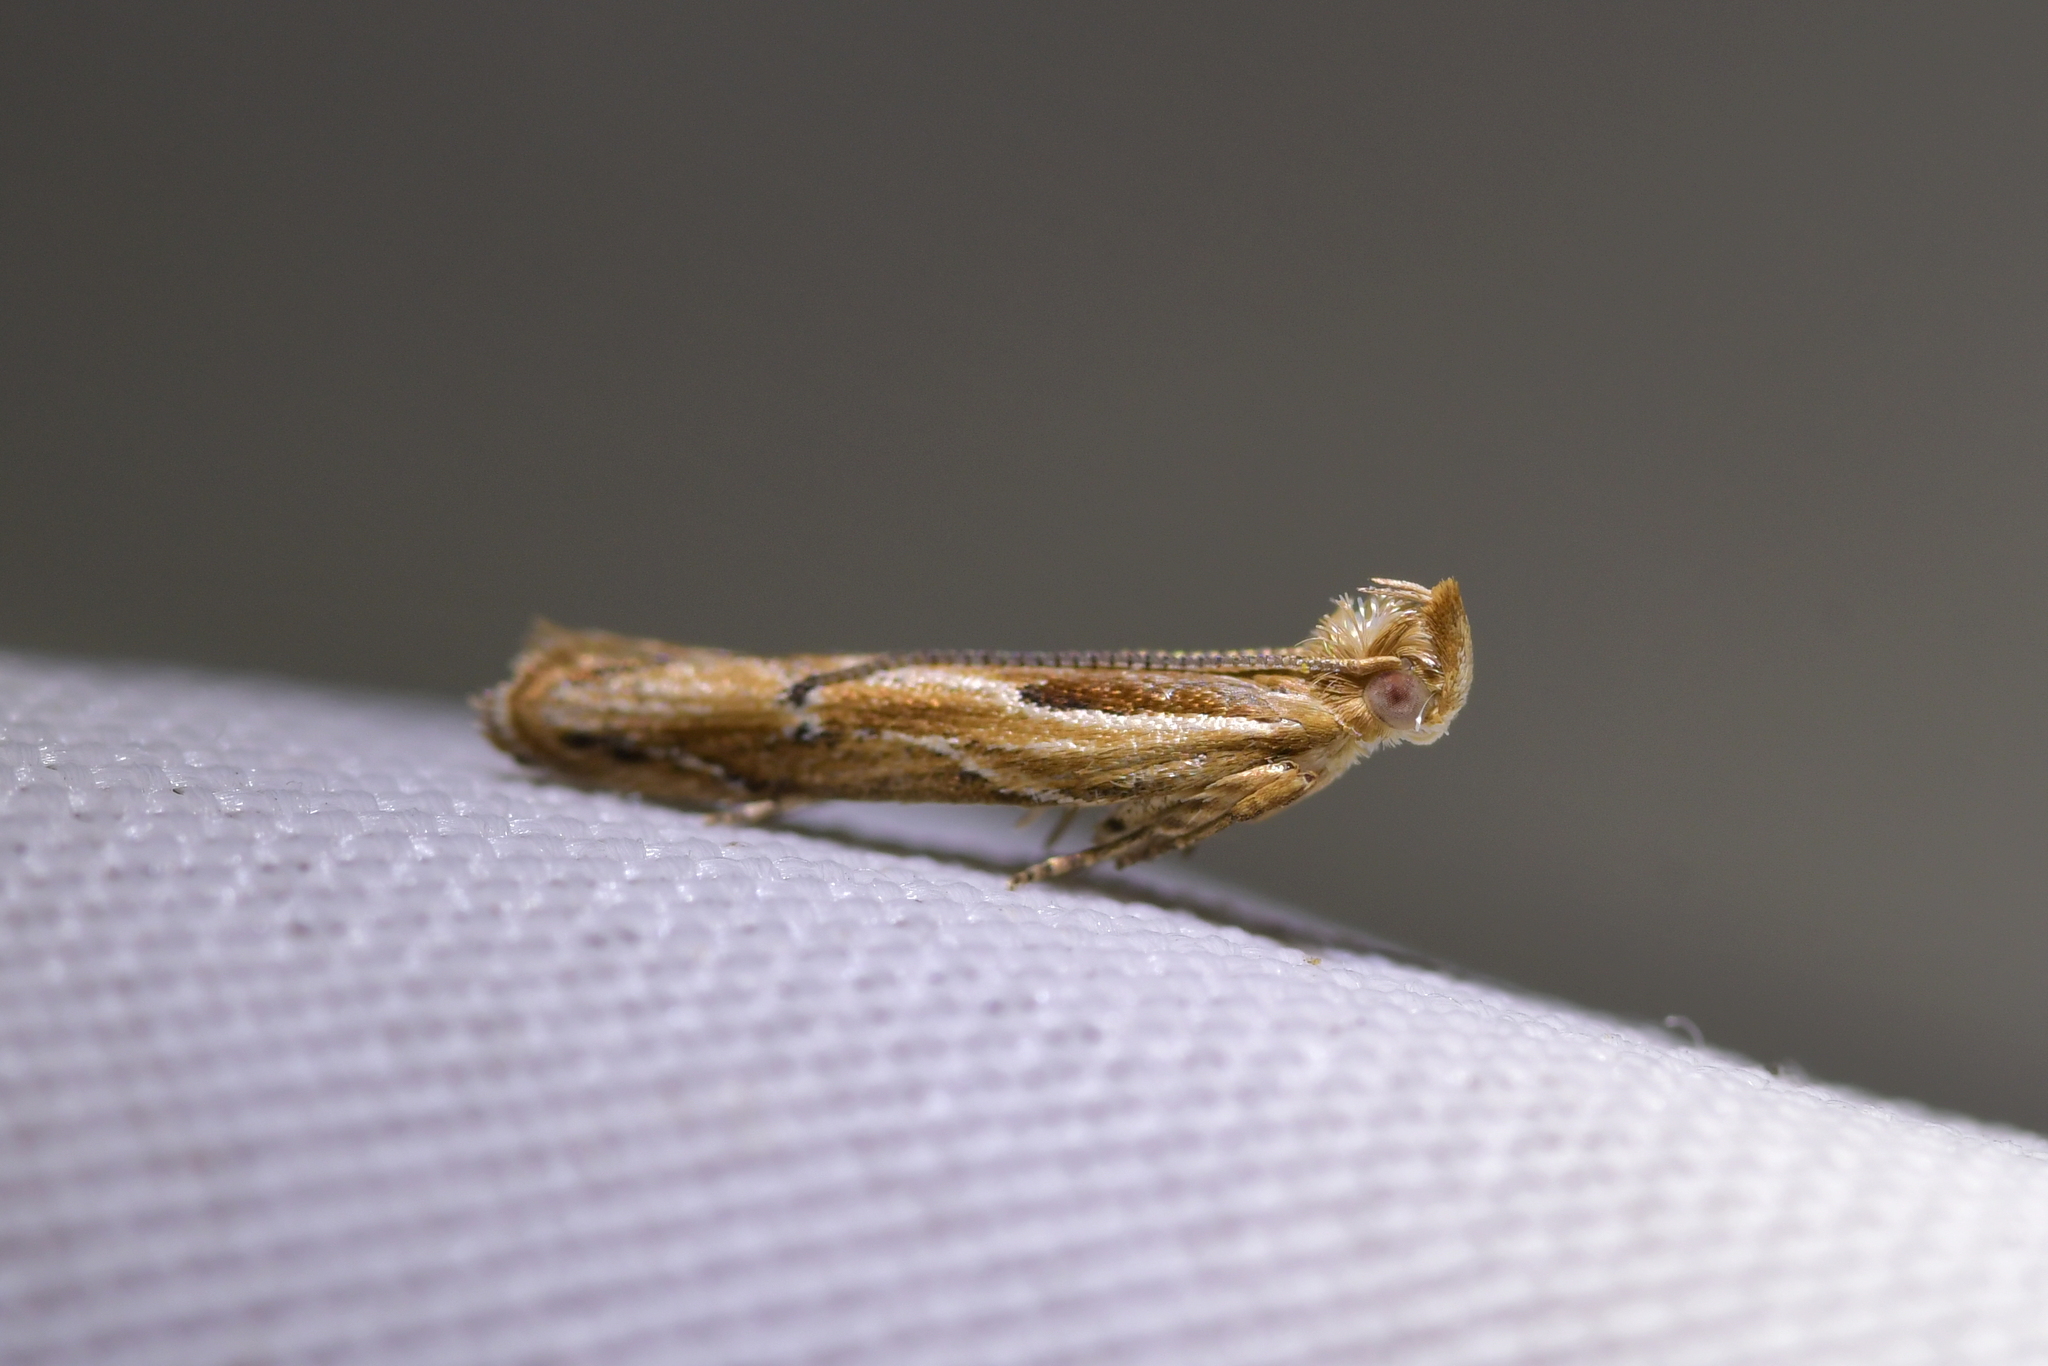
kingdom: Animalia
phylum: Arthropoda
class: Insecta
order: Lepidoptera
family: Depressariidae
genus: Eutorna
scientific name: Eutorna symmorpha
